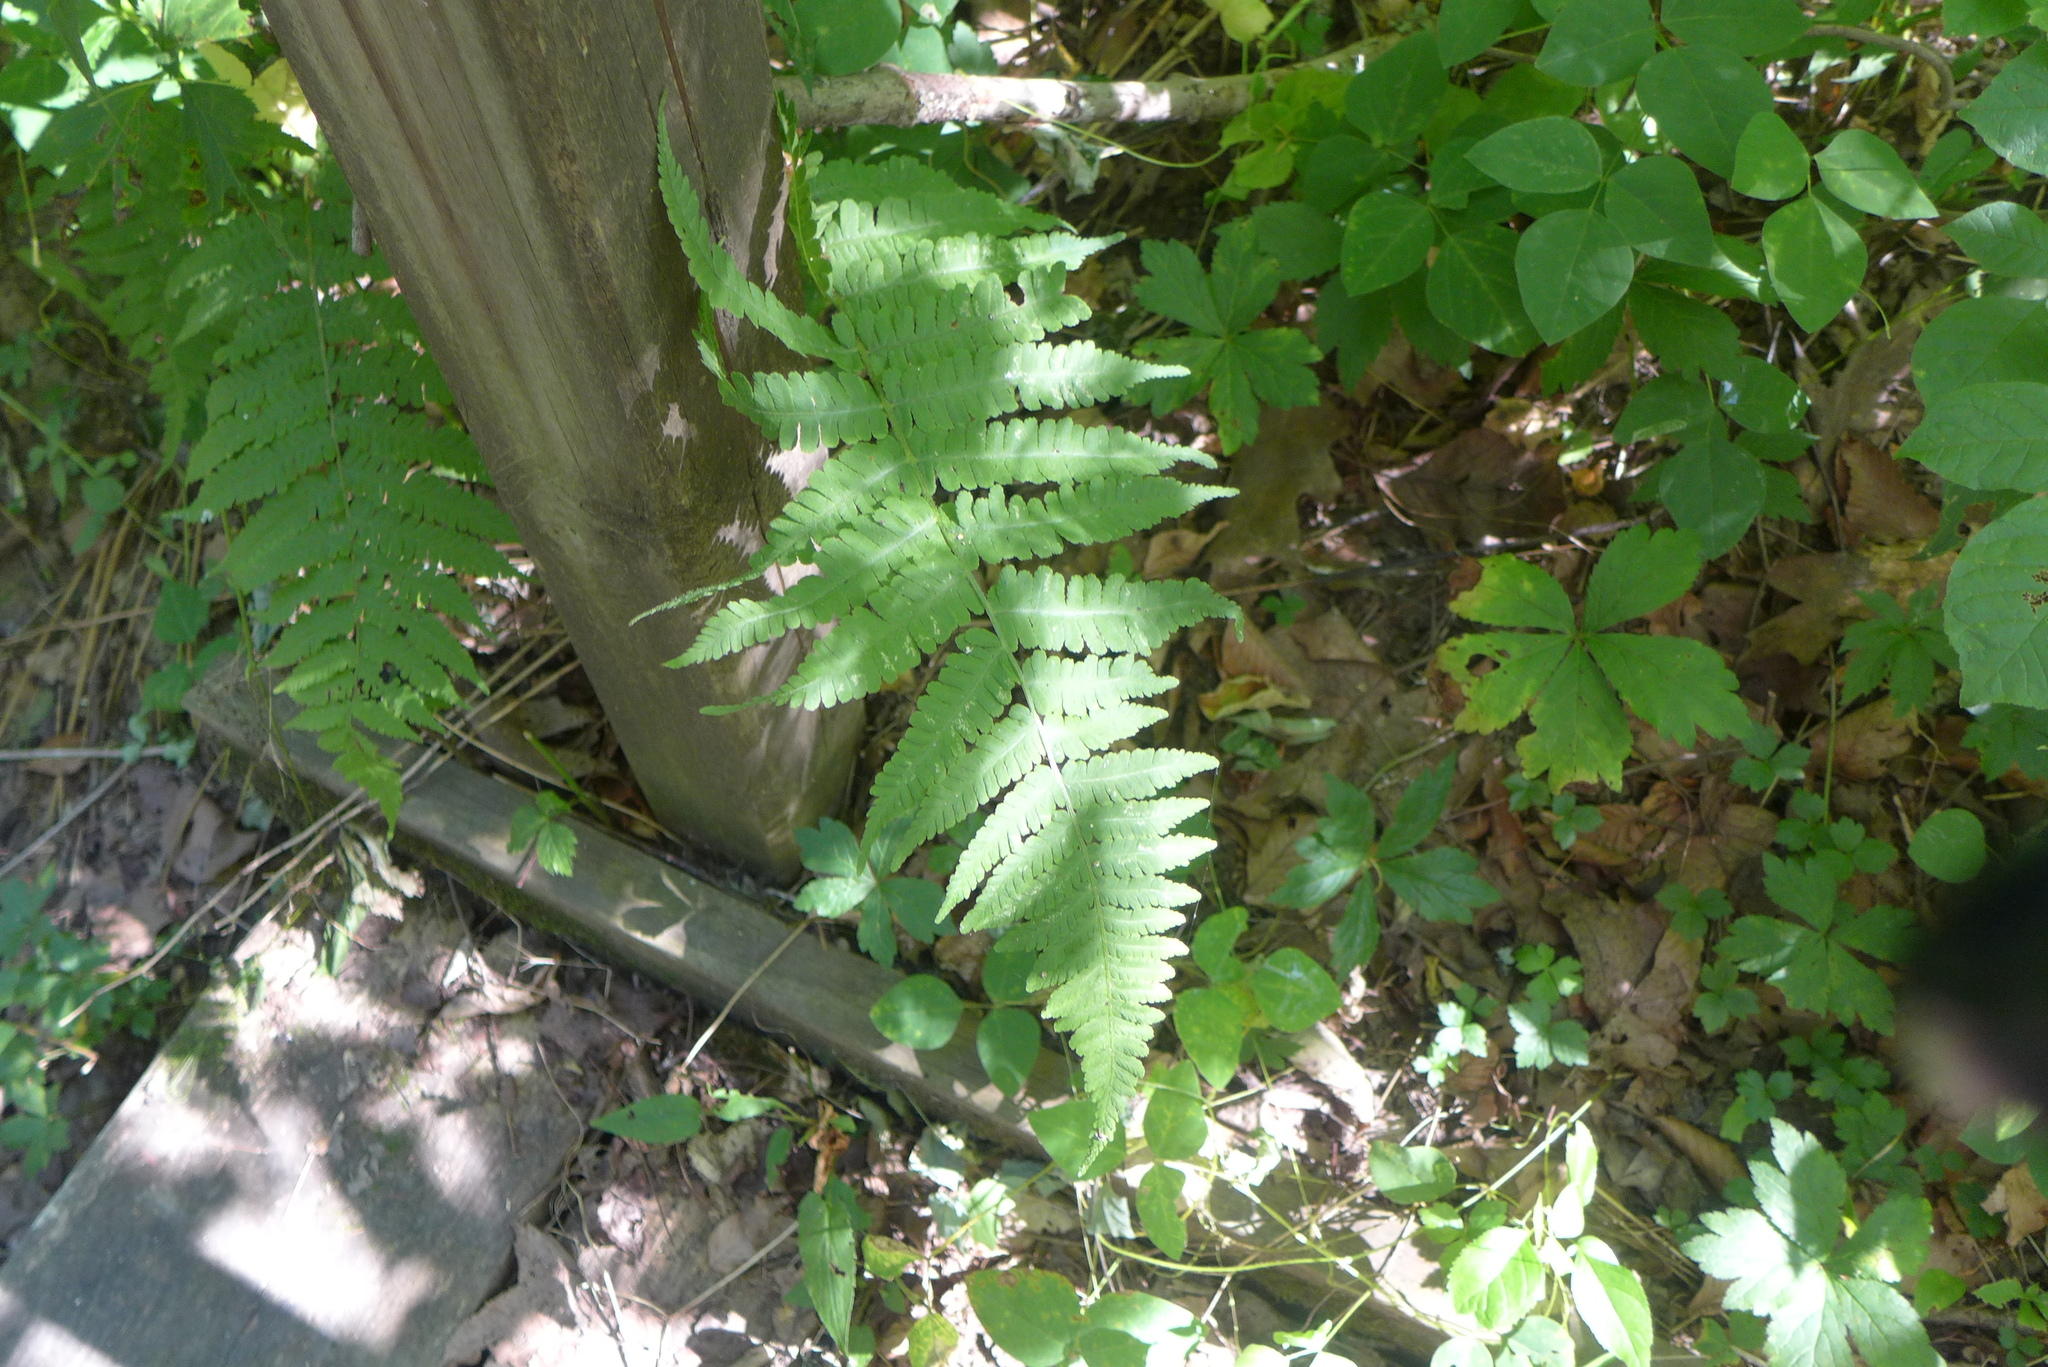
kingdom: Plantae
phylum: Tracheophyta
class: Polypodiopsida
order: Polypodiales
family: Athyriaceae
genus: Deparia
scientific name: Deparia acrostichoides
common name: Silver false spleenwort
